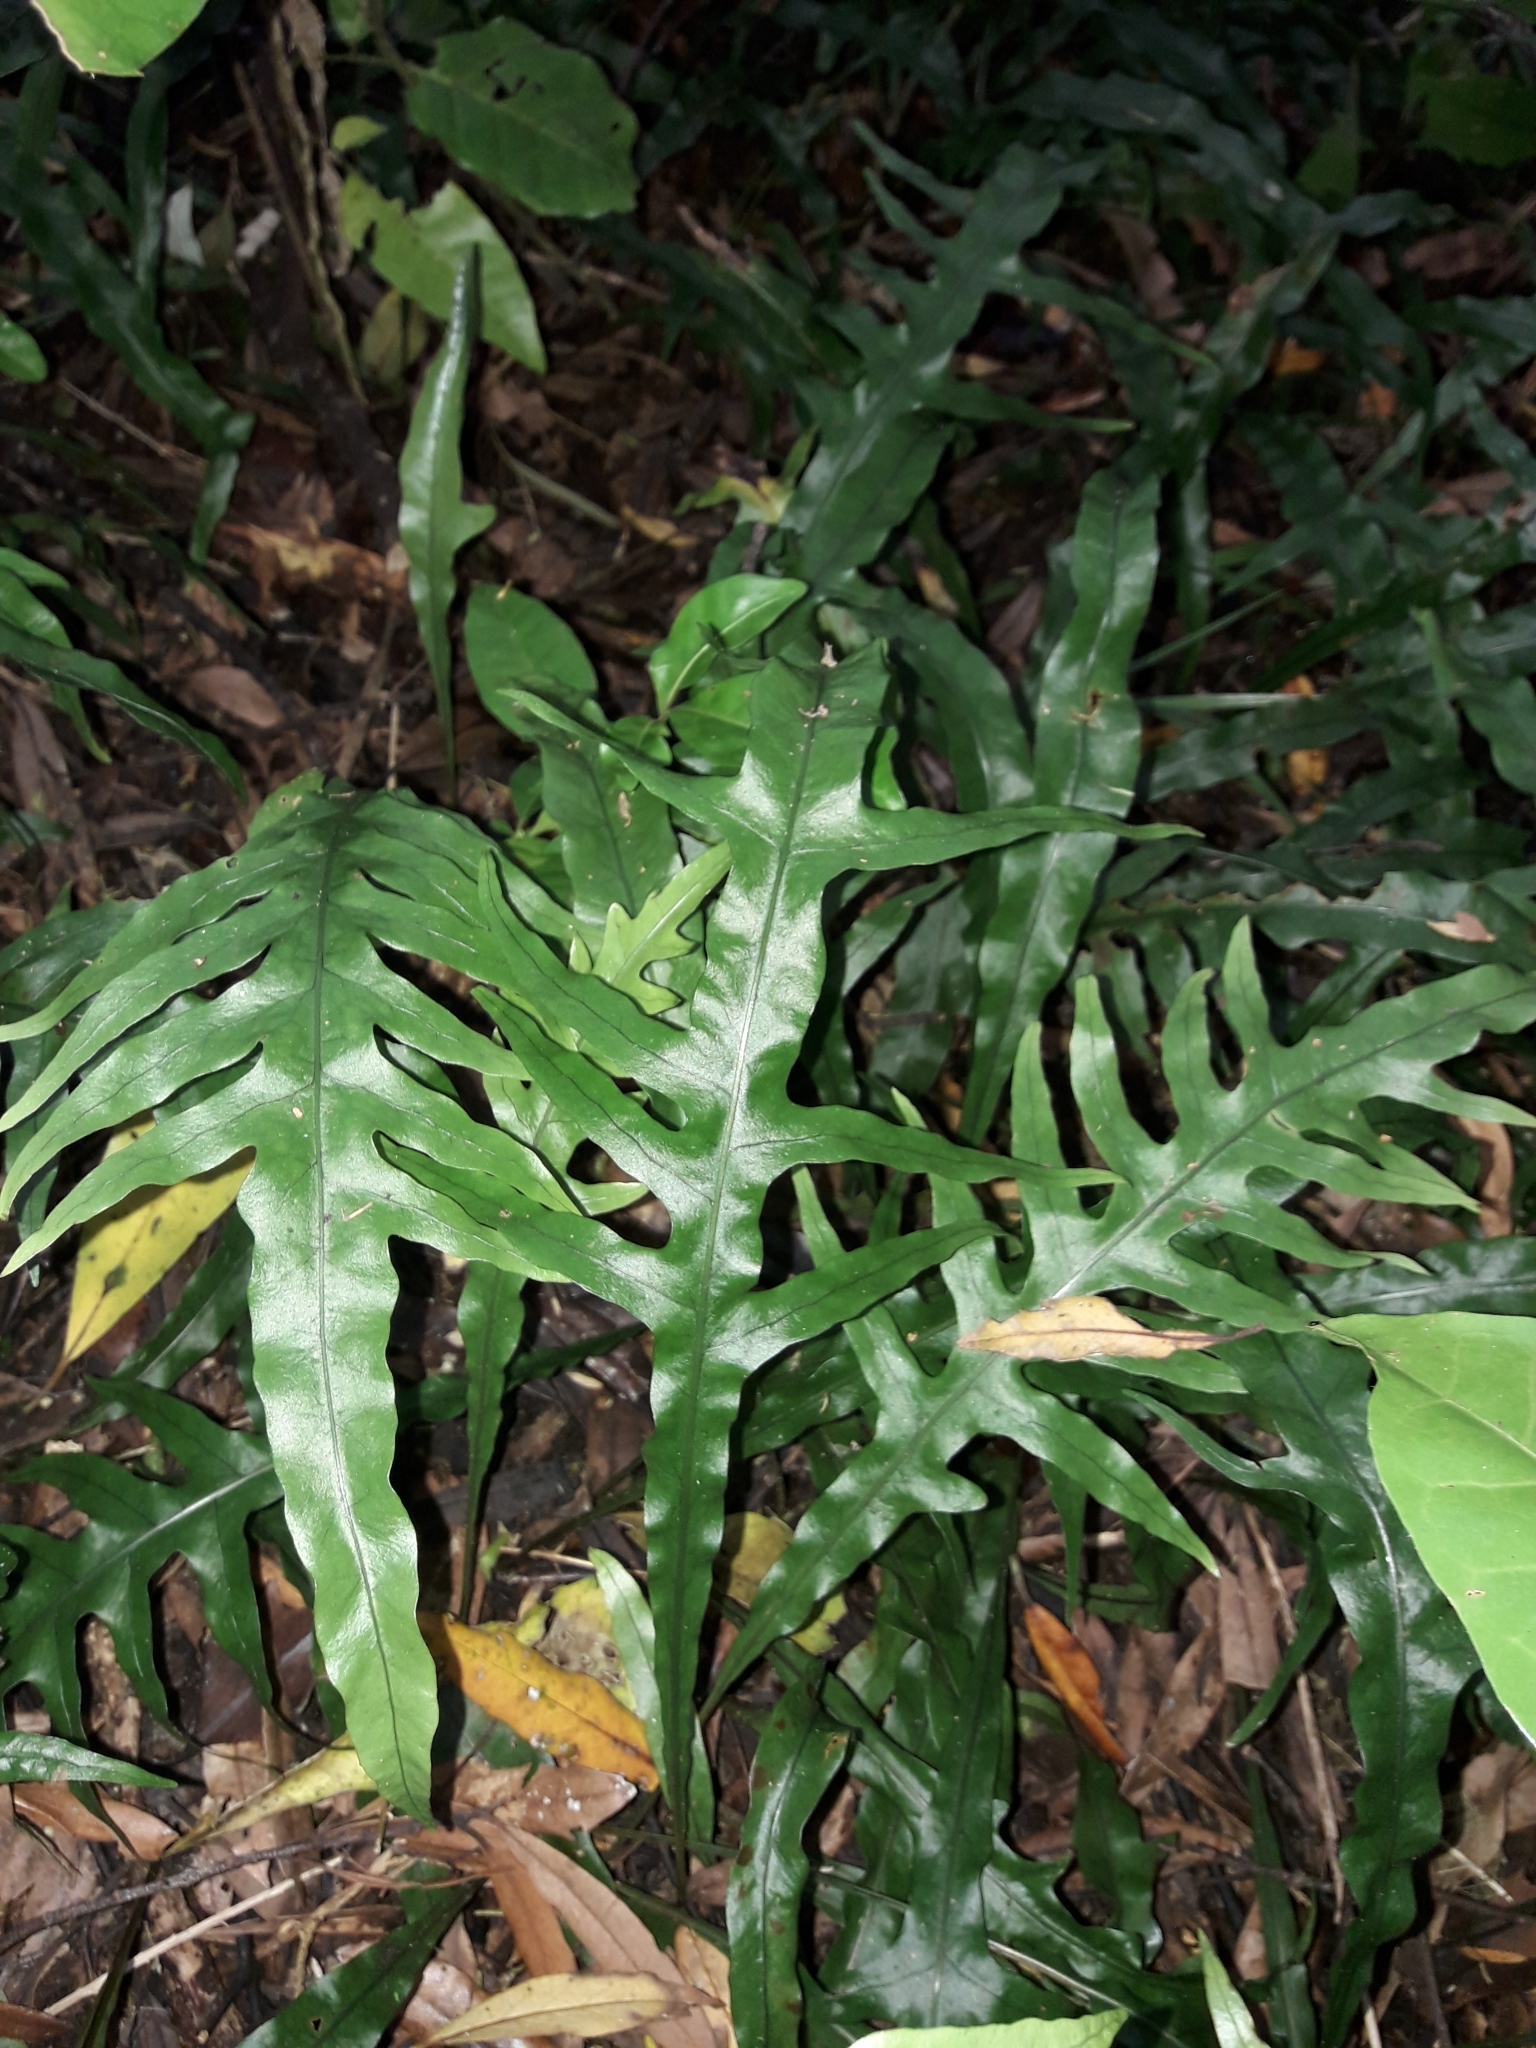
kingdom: Plantae
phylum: Tracheophyta
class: Polypodiopsida
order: Polypodiales
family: Polypodiaceae
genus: Lecanopteris
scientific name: Lecanopteris scandens
